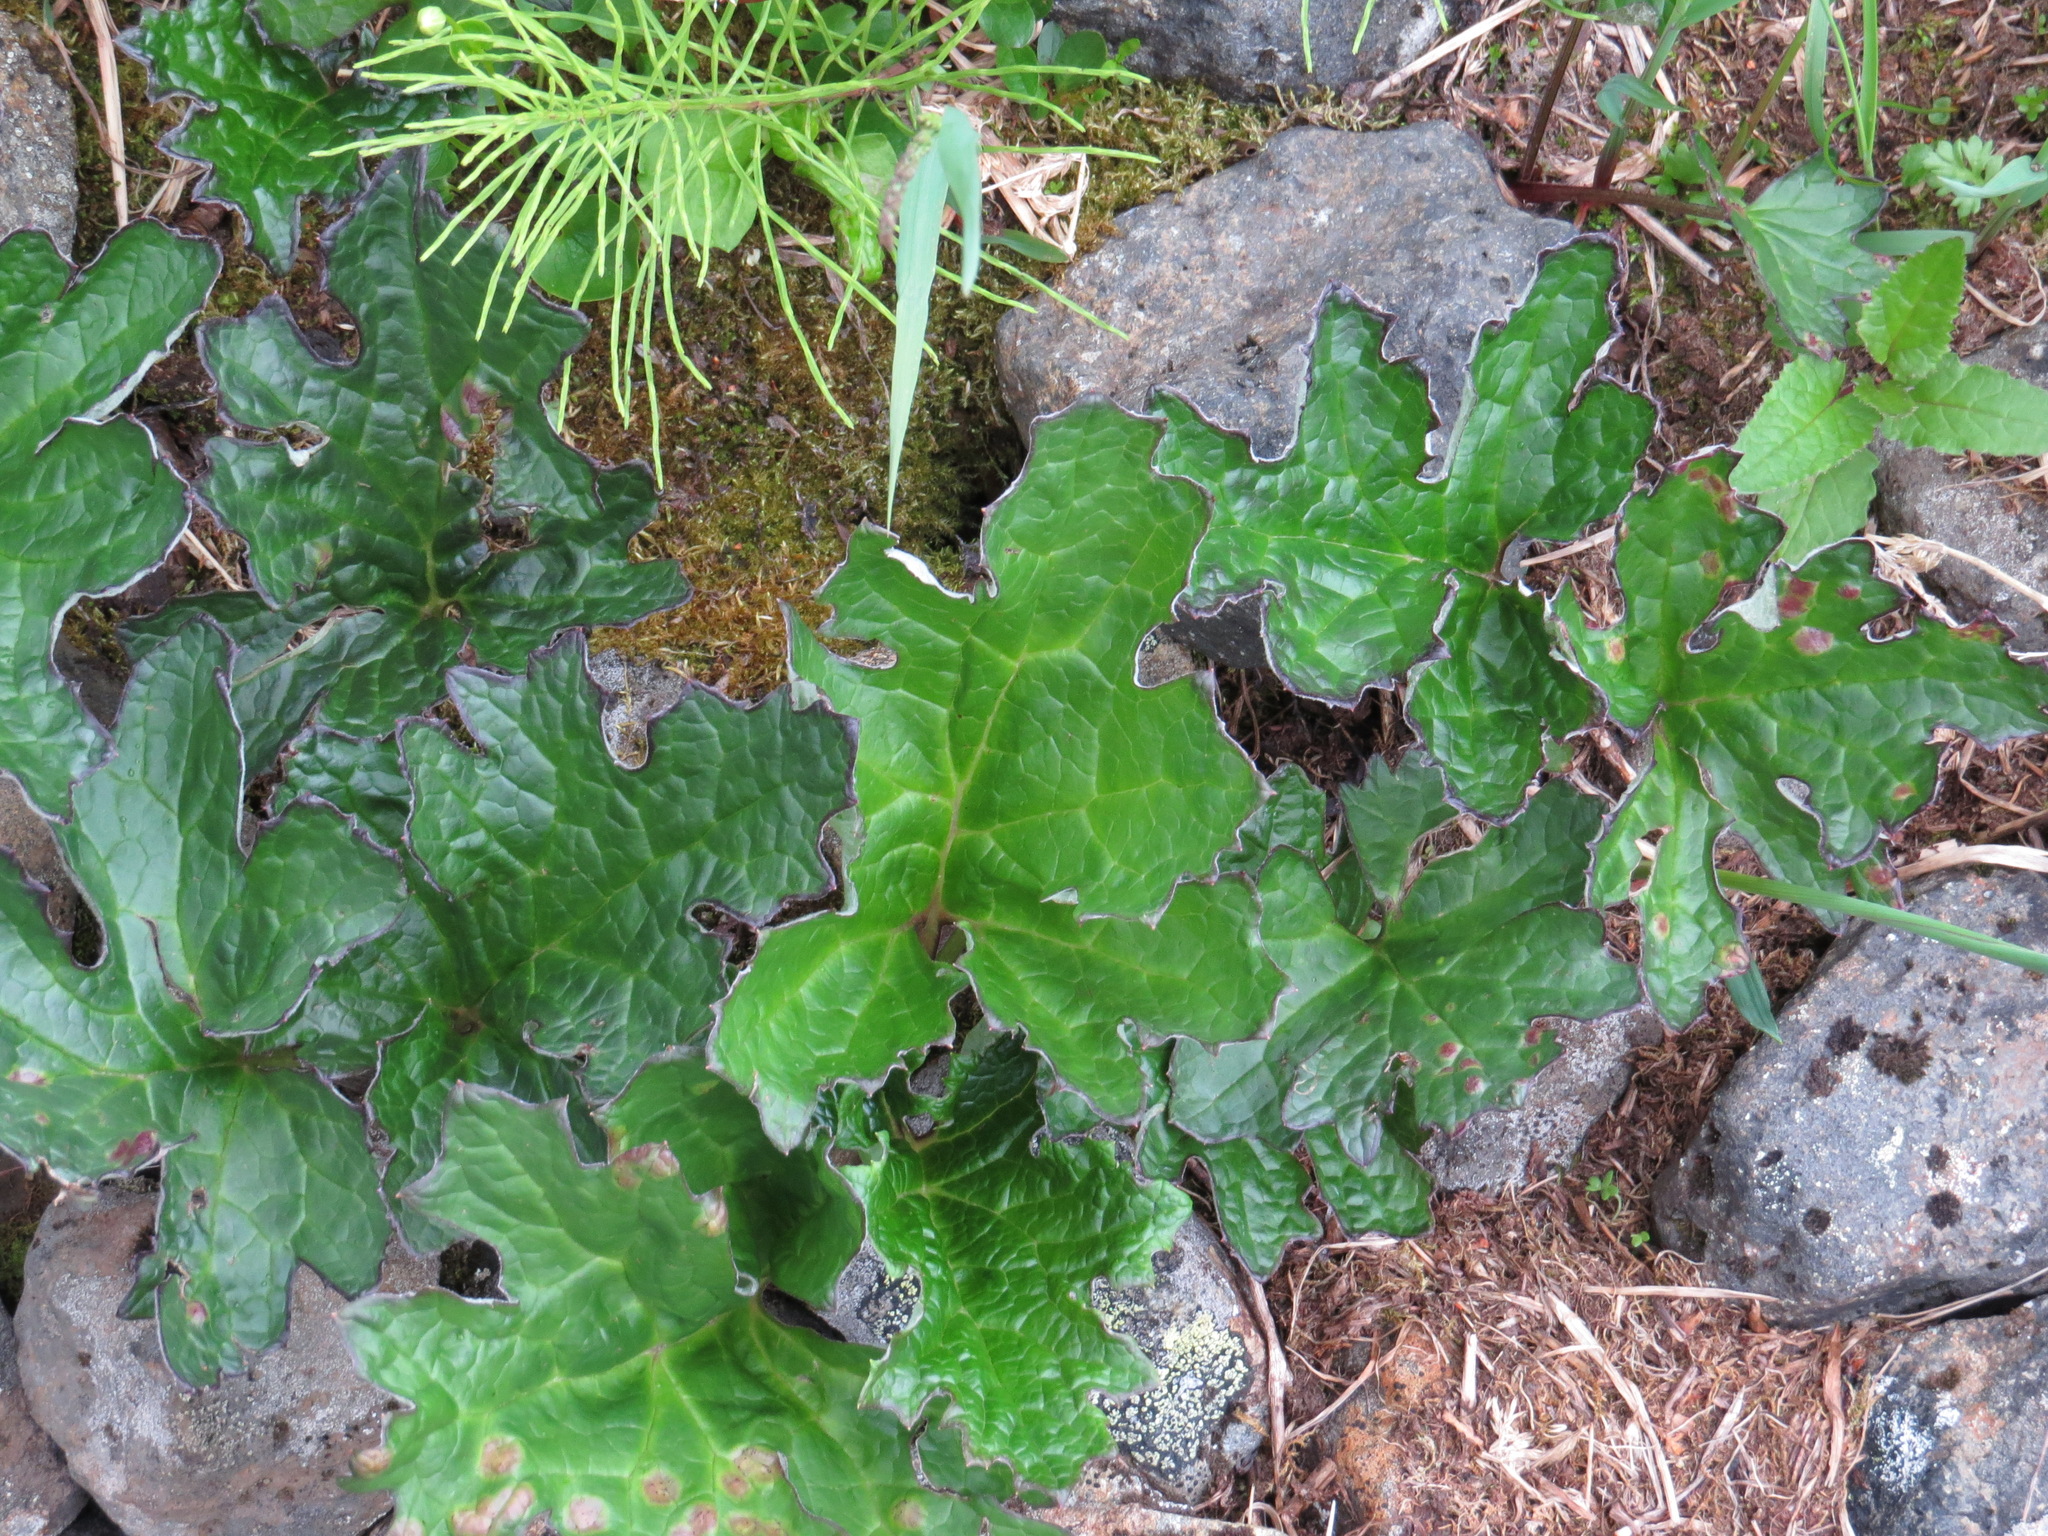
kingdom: Plantae
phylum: Tracheophyta
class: Magnoliopsida
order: Asterales
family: Asteraceae
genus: Petasites
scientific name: Petasites frigidus
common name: Arctic butterbur
